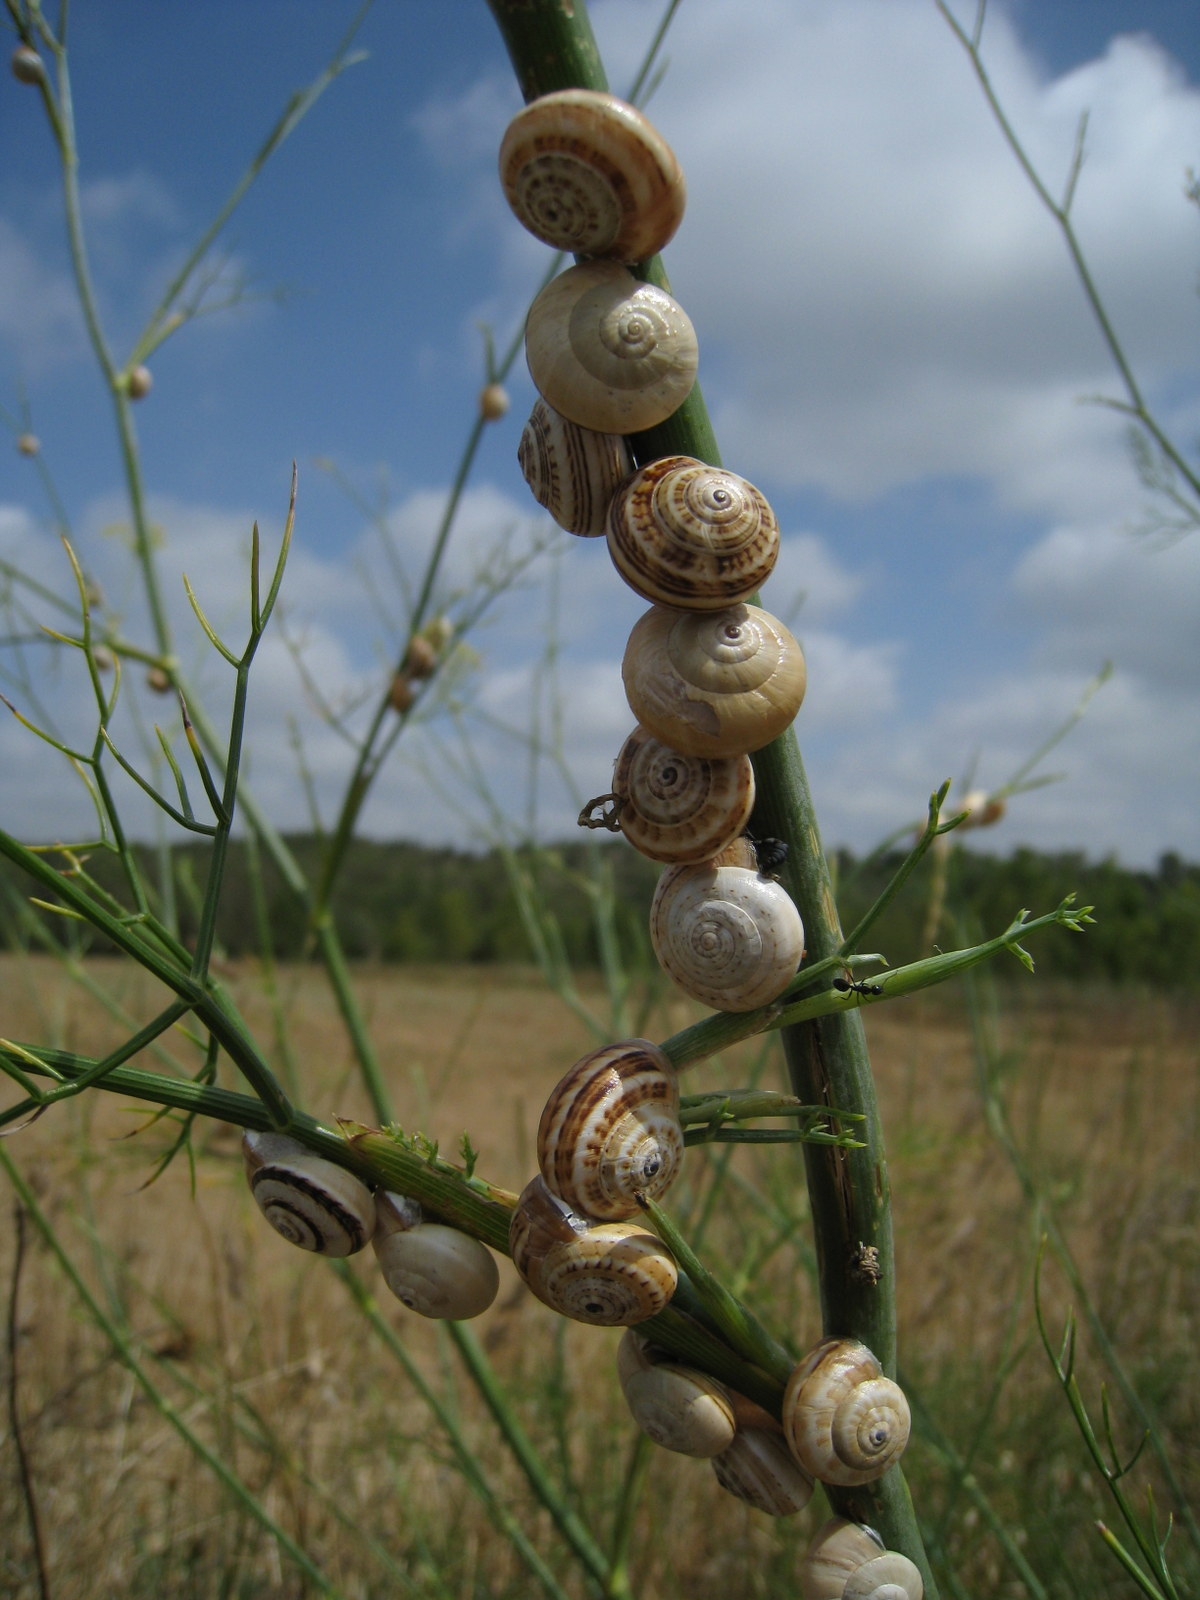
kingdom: Animalia
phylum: Mollusca
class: Gastropoda
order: Stylommatophora
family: Helicidae
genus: Theba
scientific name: Theba pisana
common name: White snail
